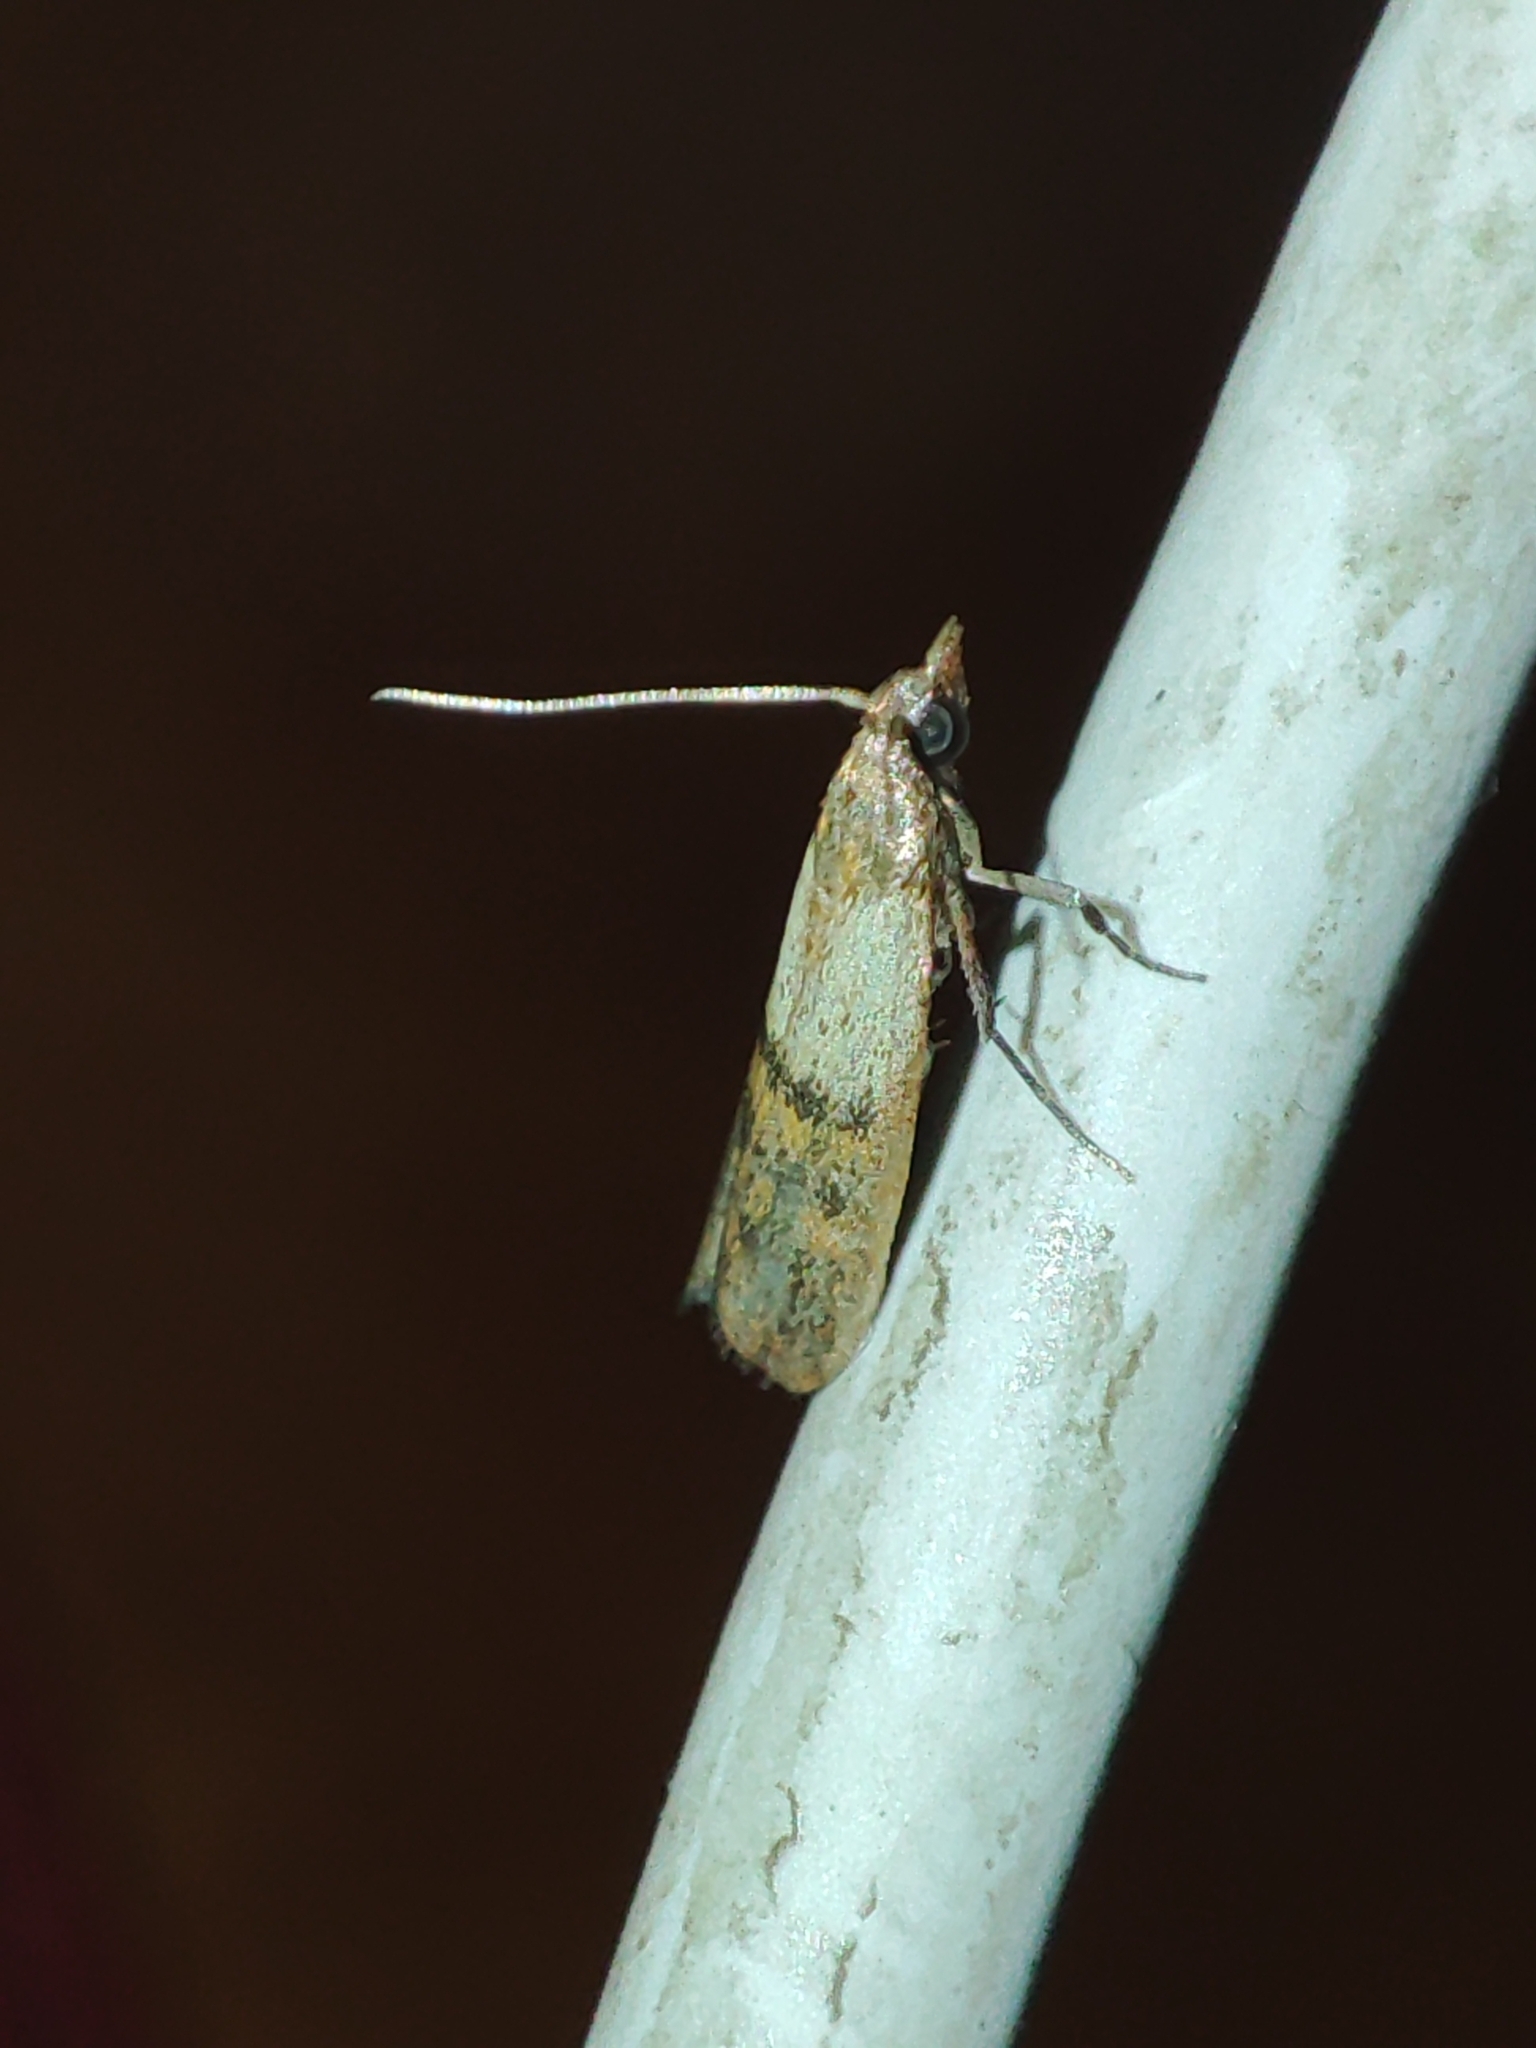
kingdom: Animalia
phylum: Arthropoda
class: Insecta
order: Lepidoptera
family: Pyralidae
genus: Plodia
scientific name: Plodia interpunctella
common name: Indian meal moth
